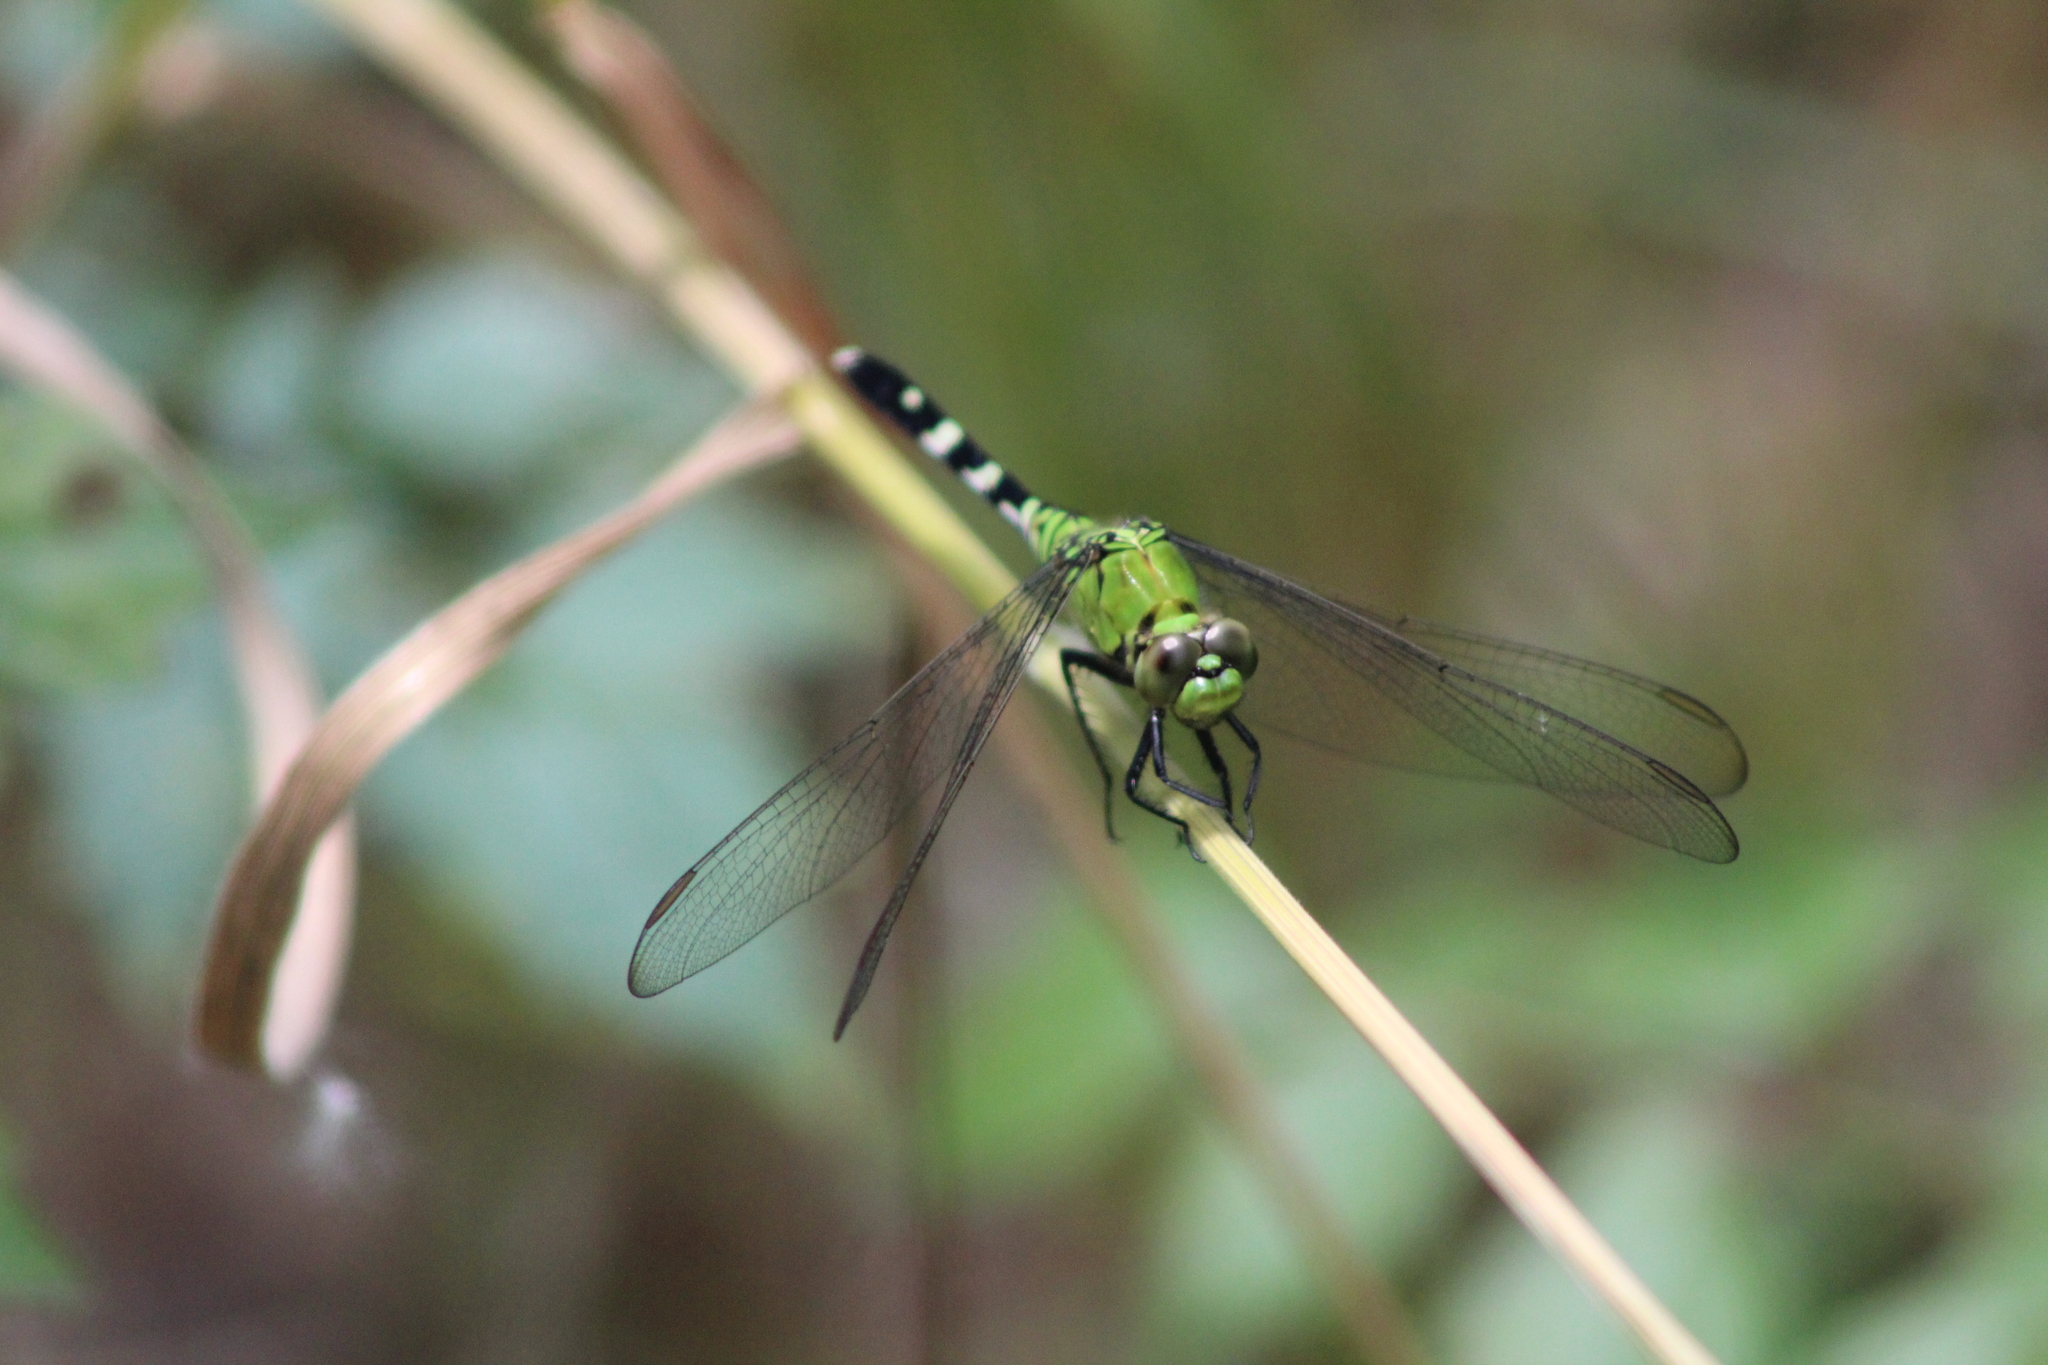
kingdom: Animalia
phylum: Arthropoda
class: Insecta
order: Odonata
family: Libellulidae
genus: Erythemis
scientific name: Erythemis simplicicollis
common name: Eastern pondhawk
